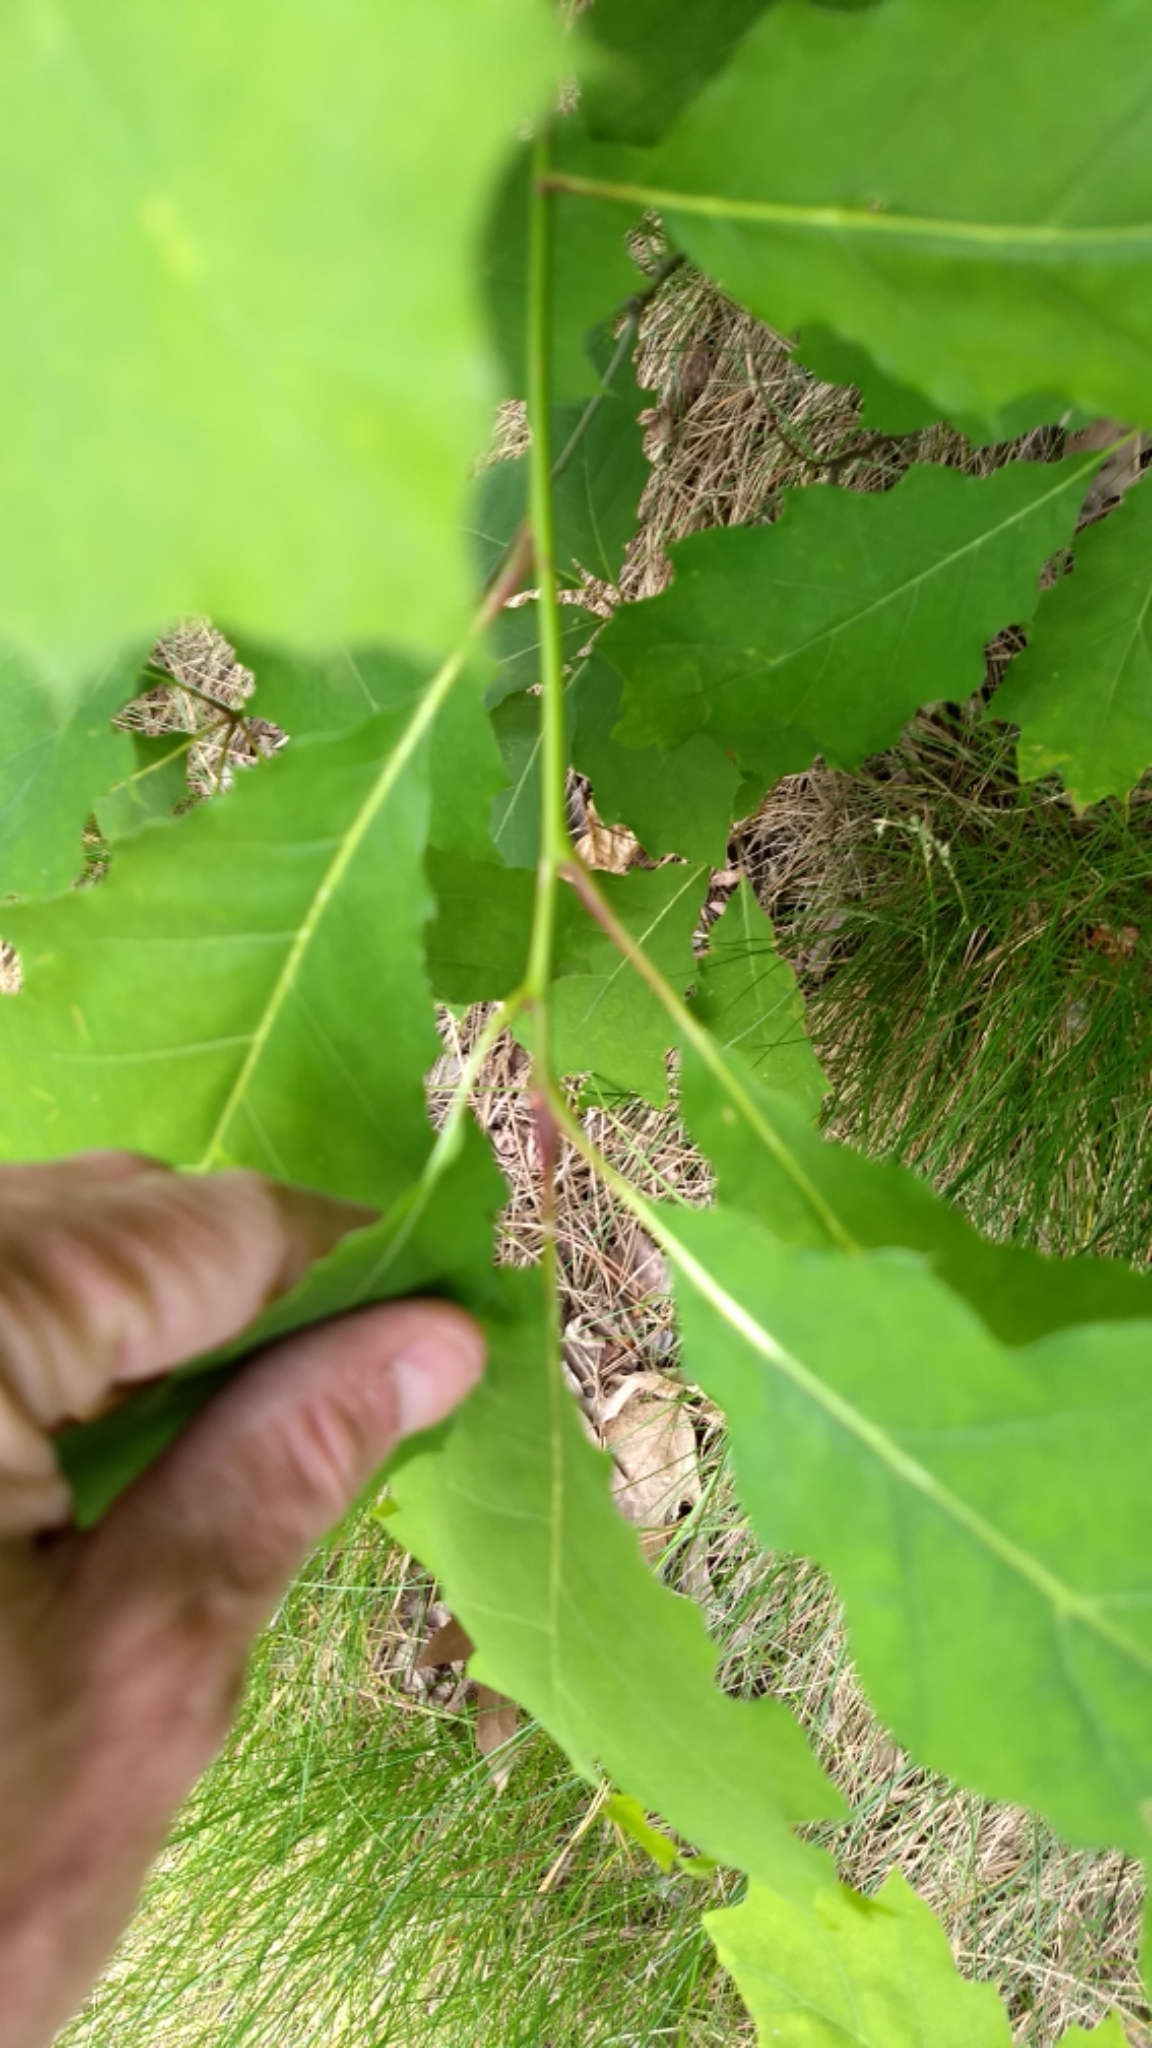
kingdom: Plantae
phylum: Tracheophyta
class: Magnoliopsida
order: Fagales
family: Fagaceae
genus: Quercus
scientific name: Quercus rubra
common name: Red oak
